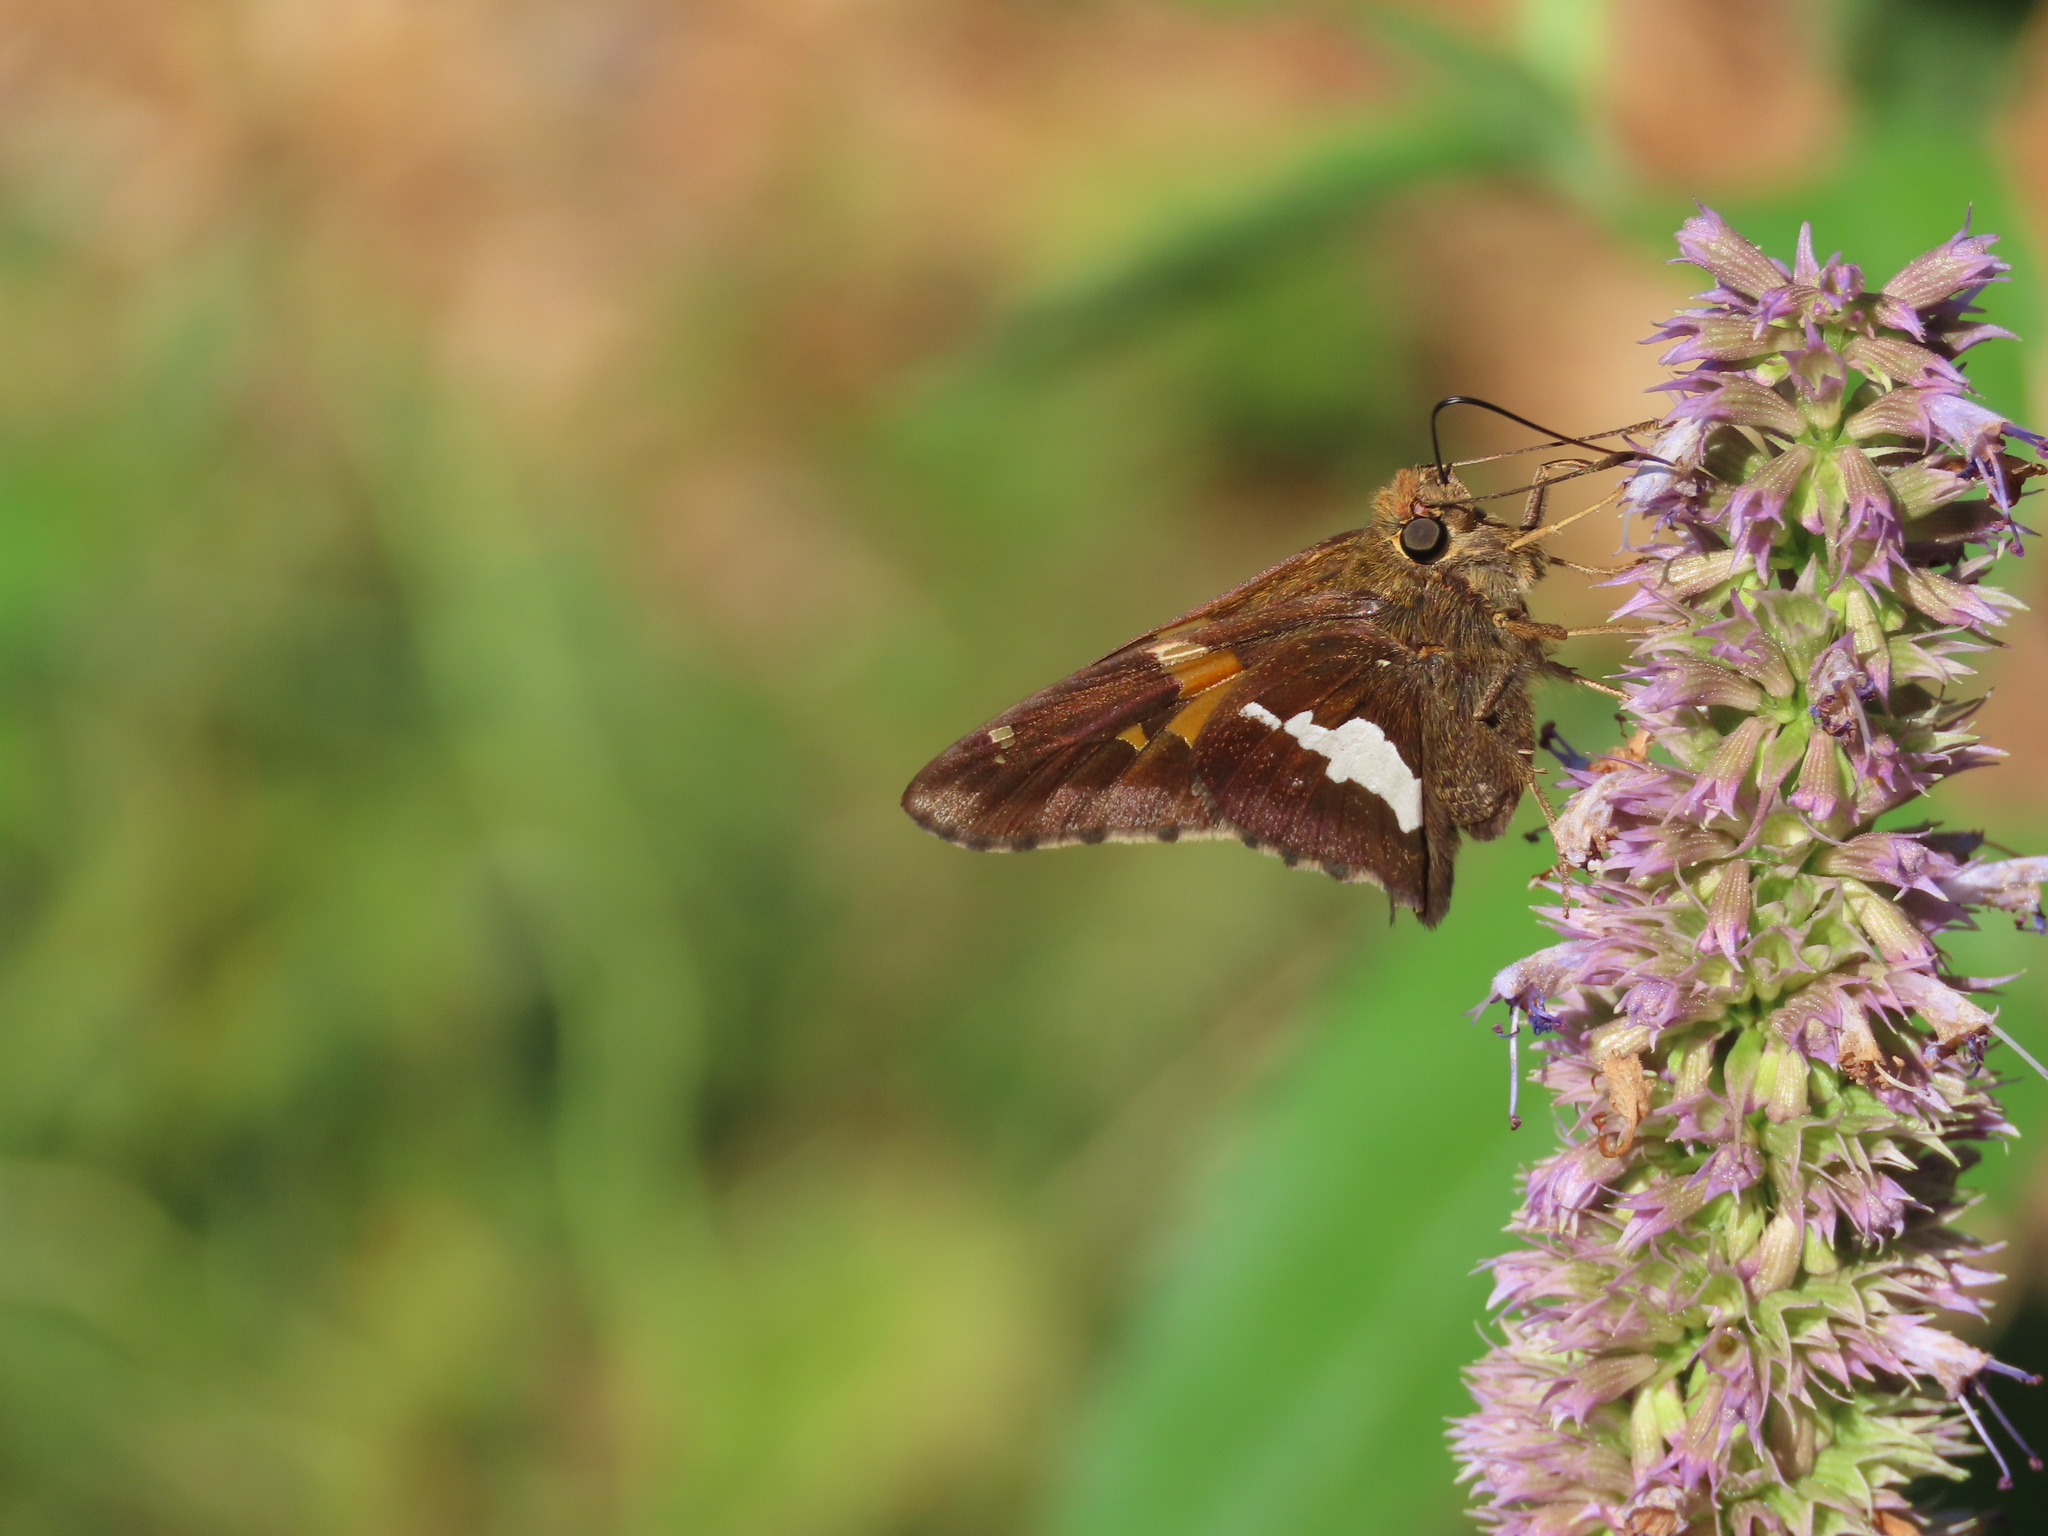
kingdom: Animalia
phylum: Arthropoda
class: Insecta
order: Lepidoptera
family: Hesperiidae
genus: Epargyreus
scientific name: Epargyreus clarus
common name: Silver-spotted skipper
